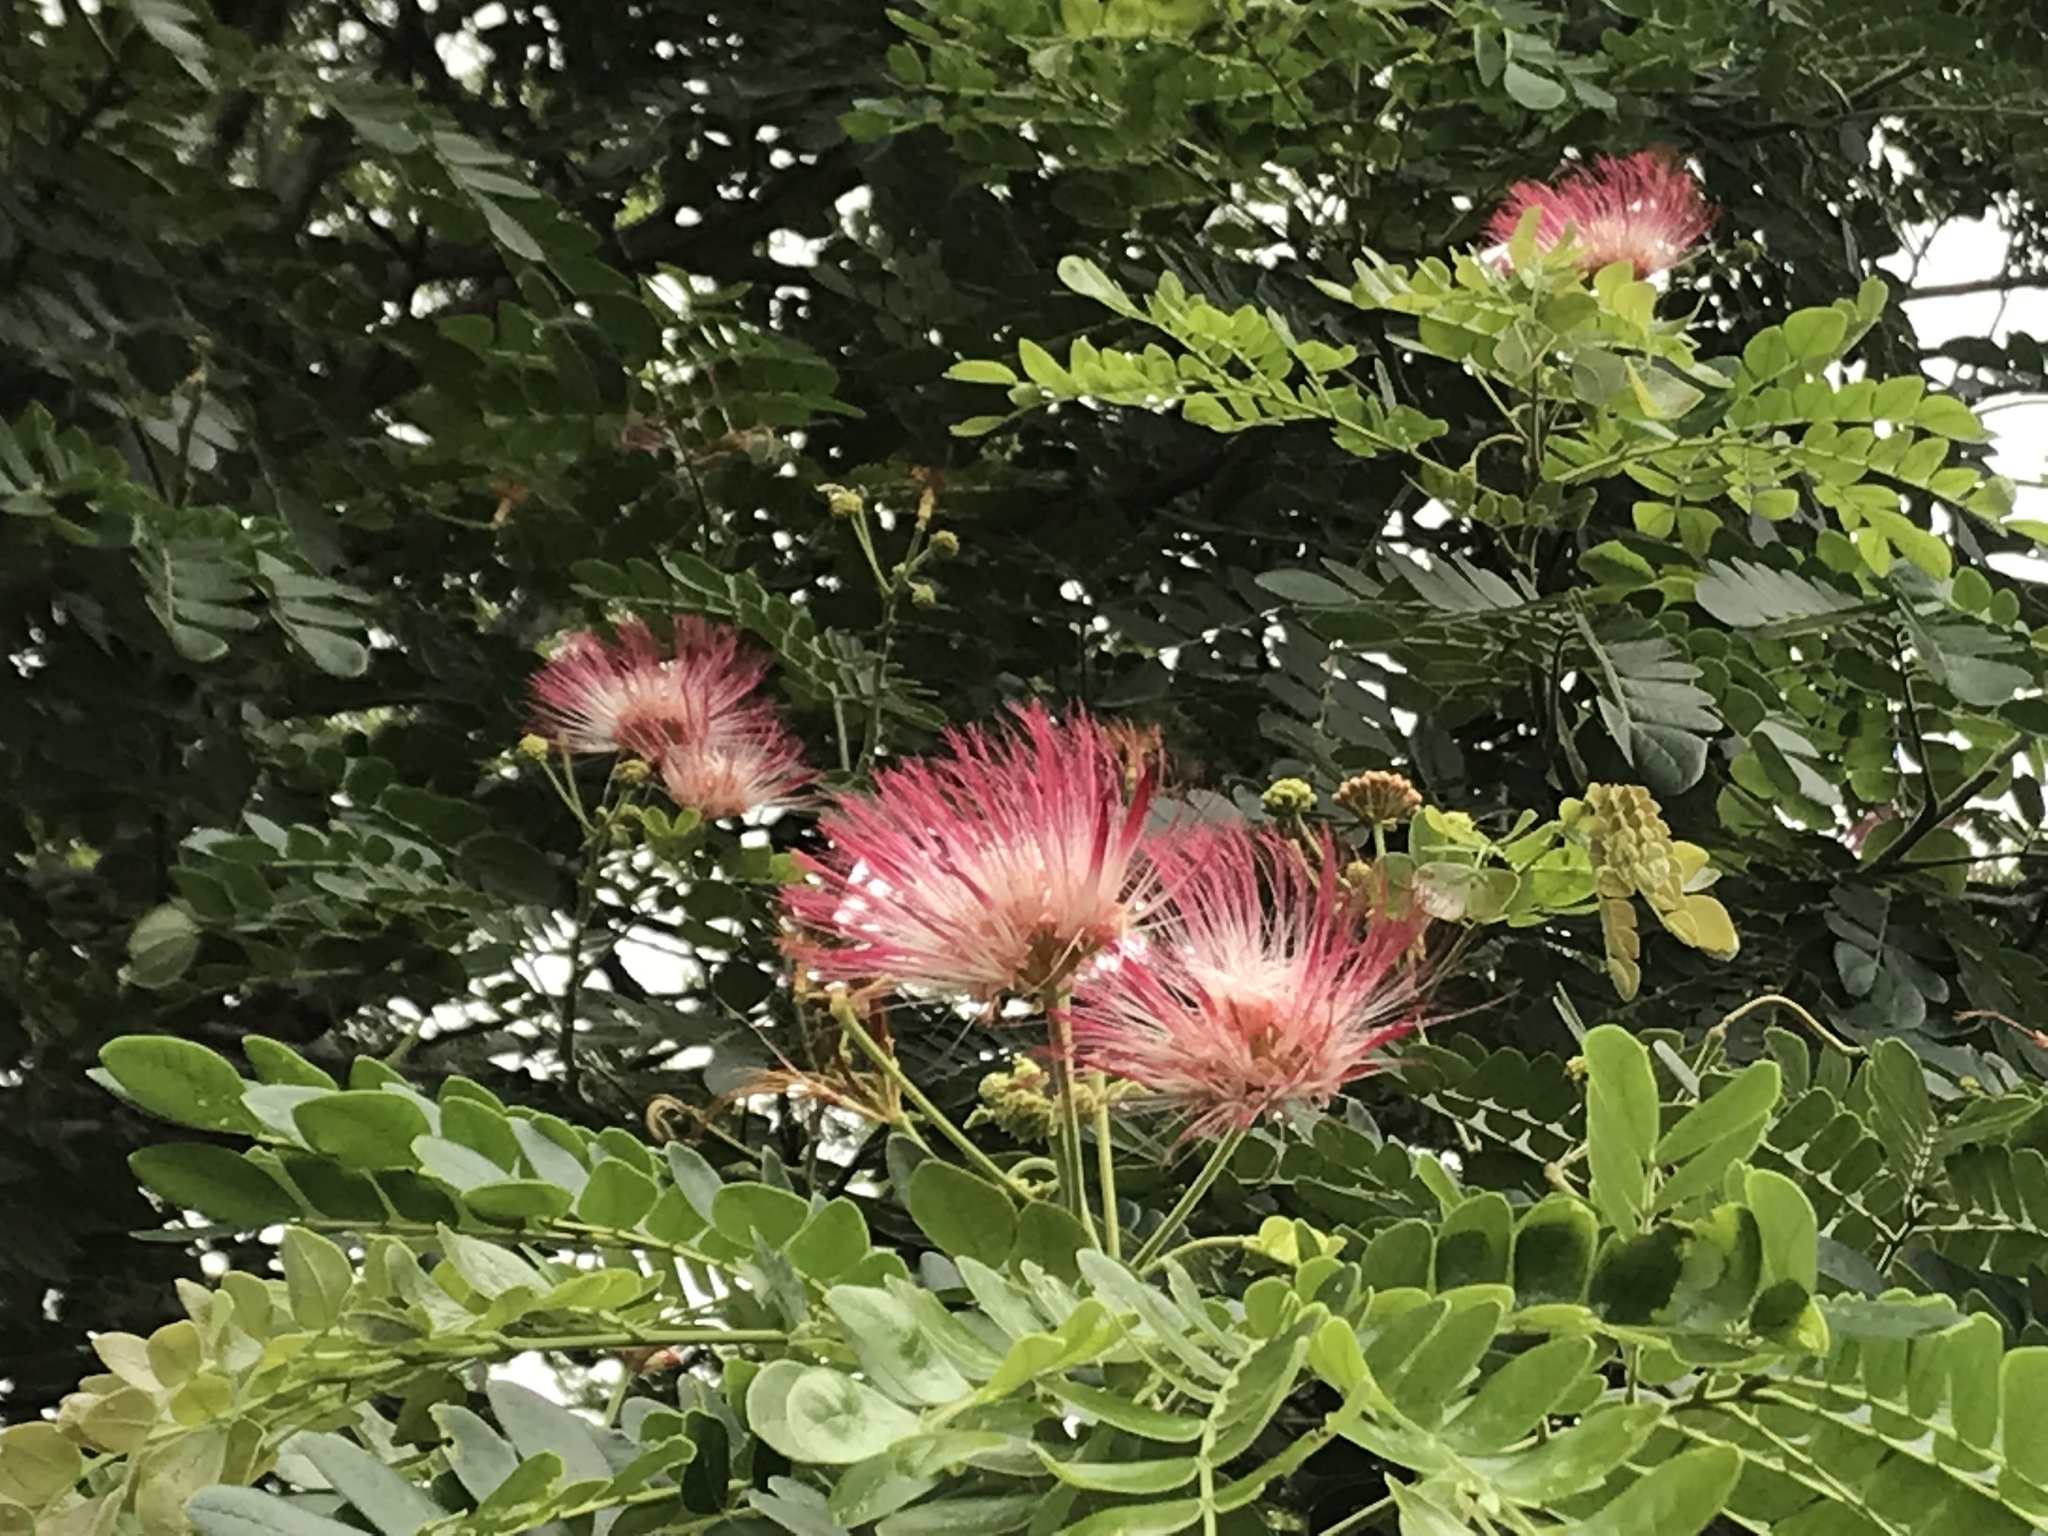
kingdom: Plantae
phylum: Tracheophyta
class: Magnoliopsida
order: Fabales
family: Fabaceae
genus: Samanea
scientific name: Samanea saman
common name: Raintree
